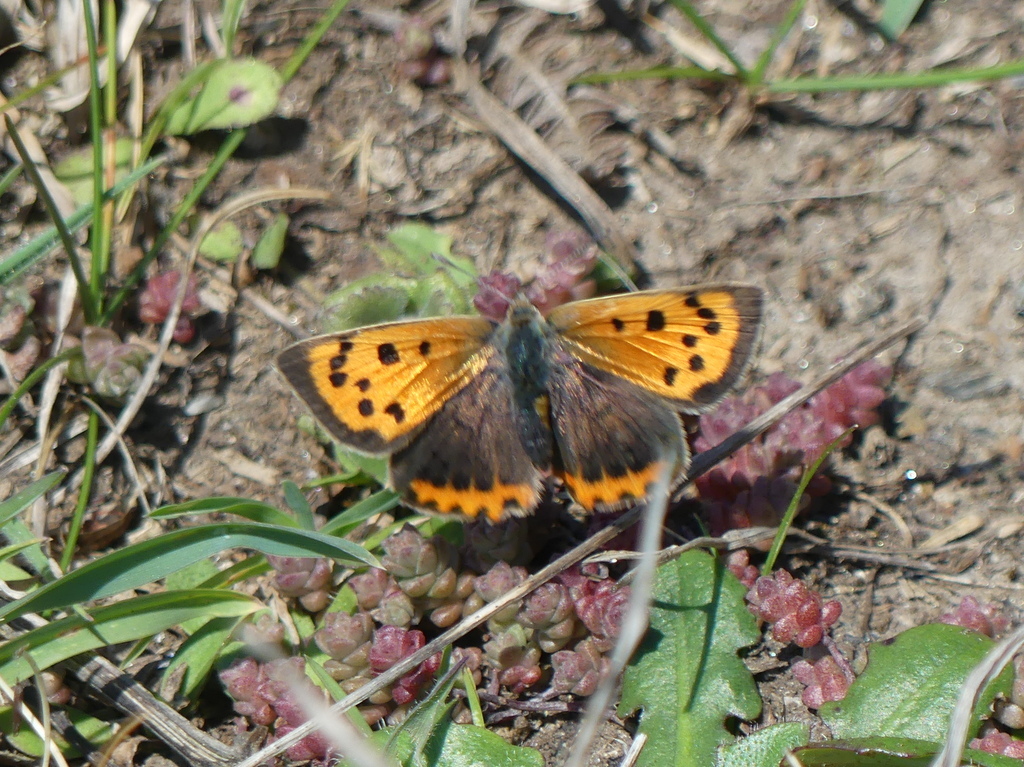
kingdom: Animalia
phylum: Arthropoda
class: Insecta
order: Lepidoptera
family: Lycaenidae
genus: Lycaena
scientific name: Lycaena phlaeas
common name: Small copper
